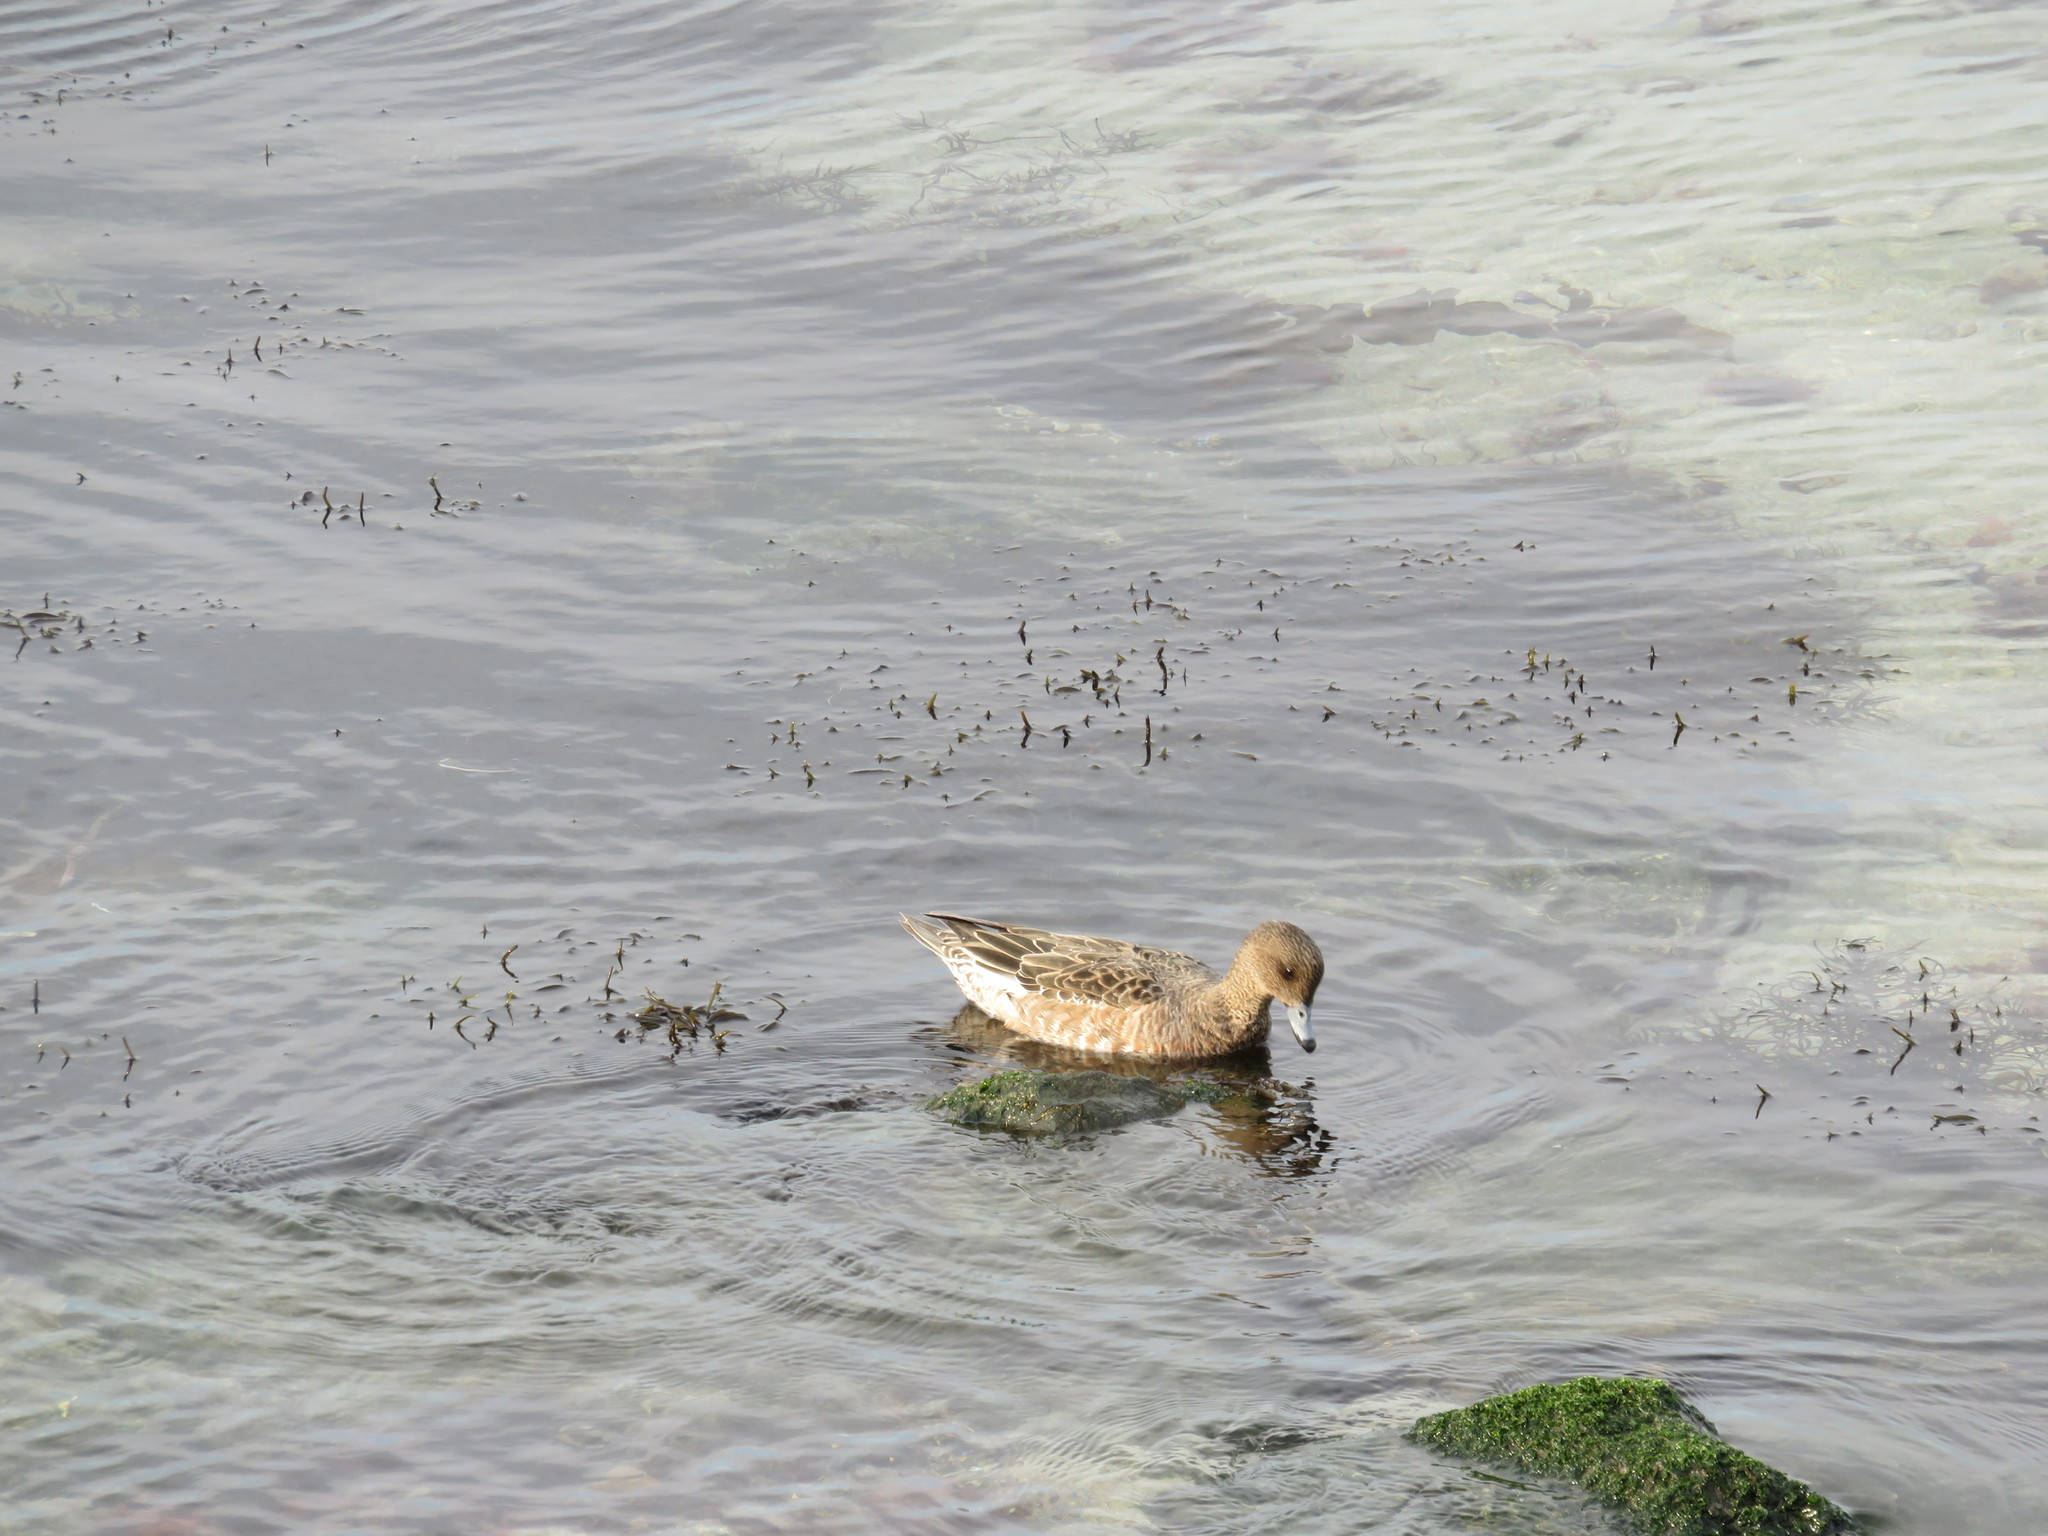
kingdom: Animalia
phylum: Chordata
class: Aves
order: Anseriformes
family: Anatidae
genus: Mareca
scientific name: Mareca penelope
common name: Eurasian wigeon
